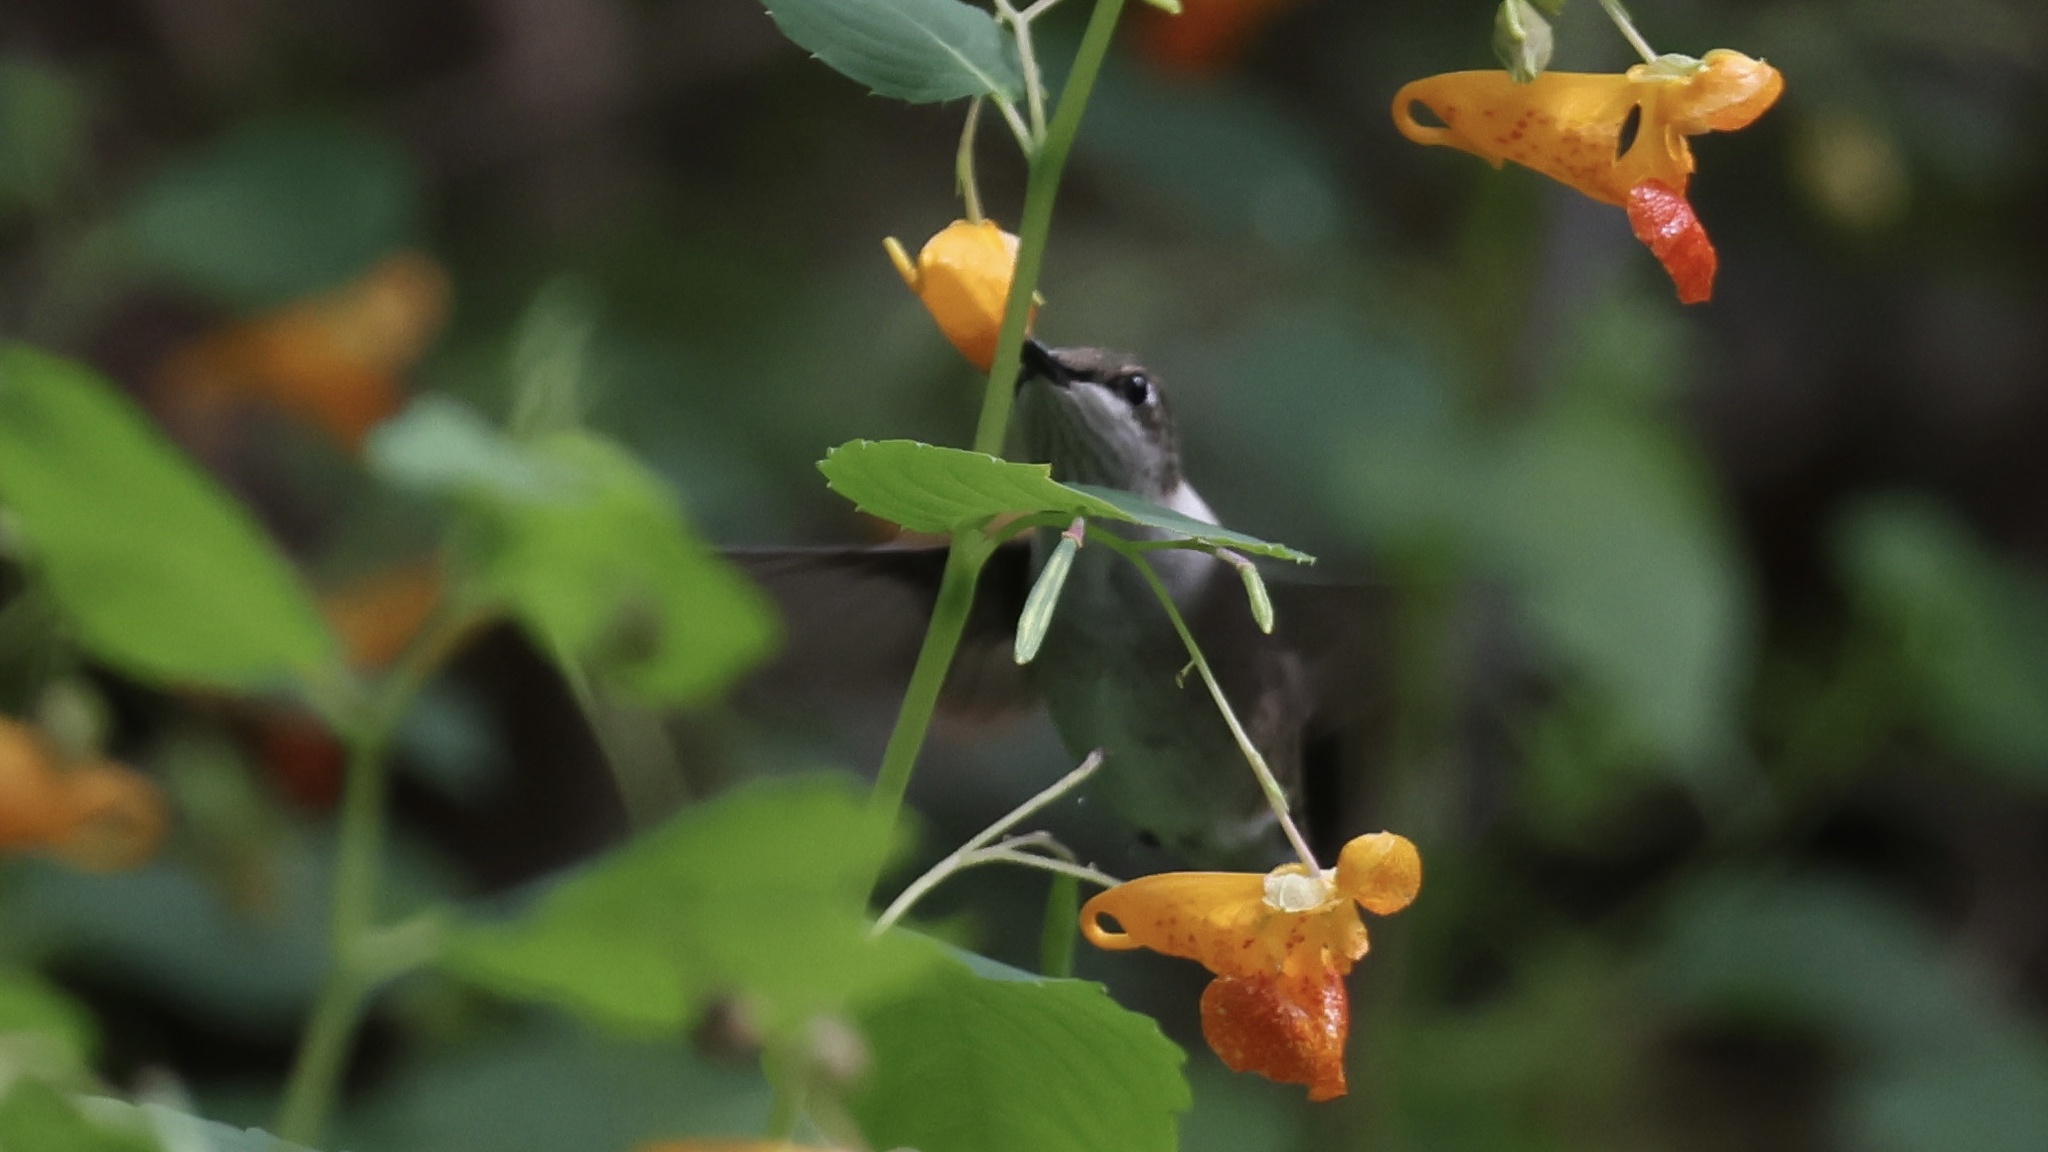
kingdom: Animalia
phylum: Chordata
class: Aves
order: Apodiformes
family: Trochilidae
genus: Archilochus
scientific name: Archilochus colubris
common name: Ruby-throated hummingbird
